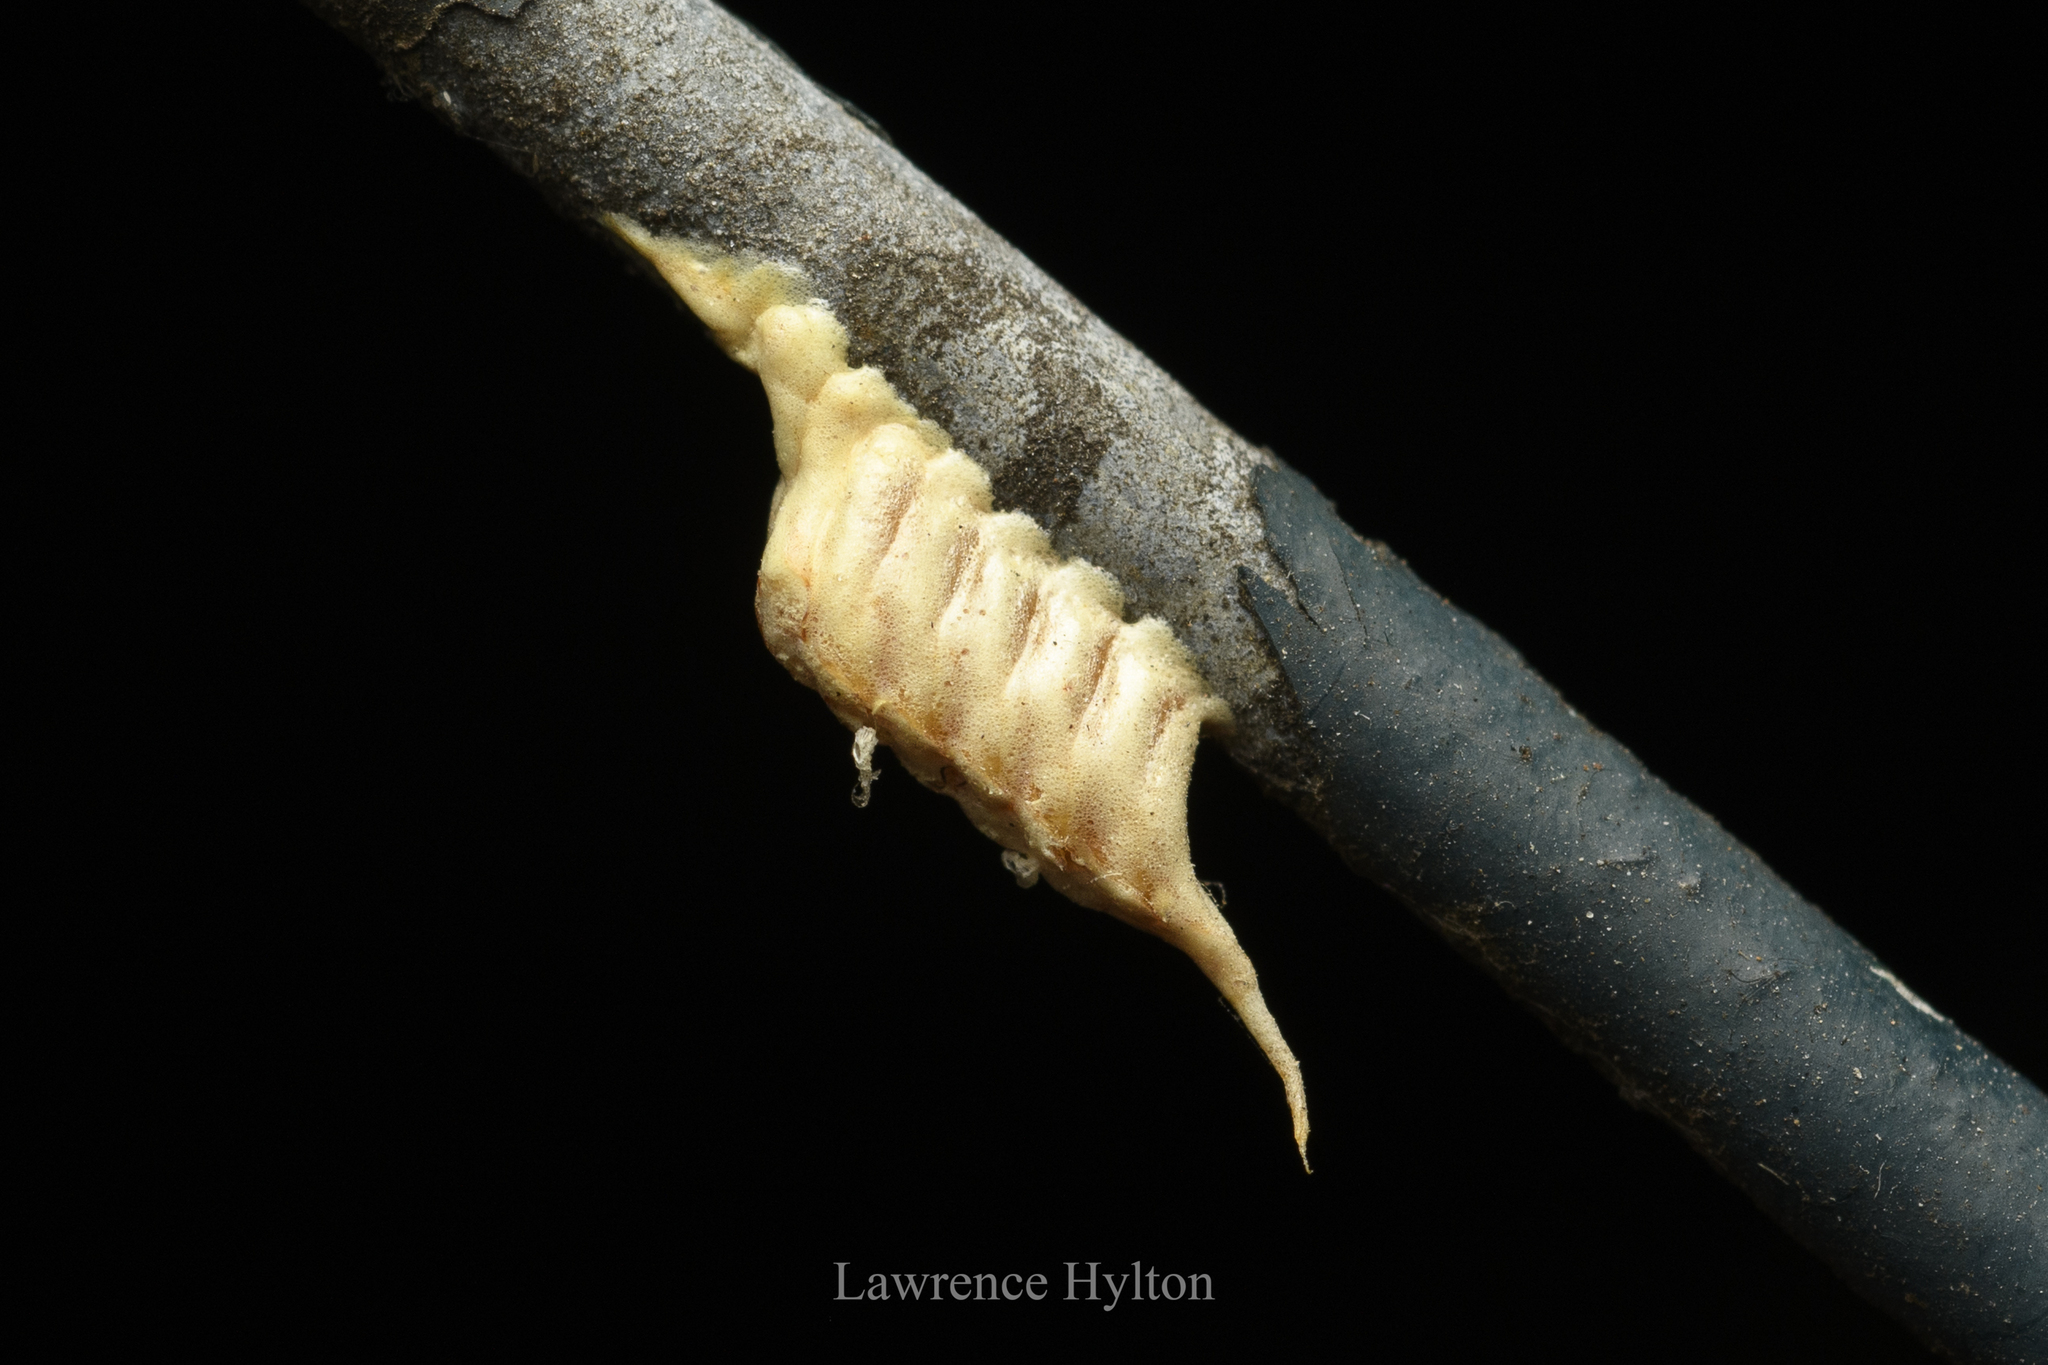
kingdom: Animalia
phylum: Arthropoda
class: Insecta
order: Mantodea
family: Nanomantidae
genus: Tropidomantis
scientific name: Tropidomantis gressitti
